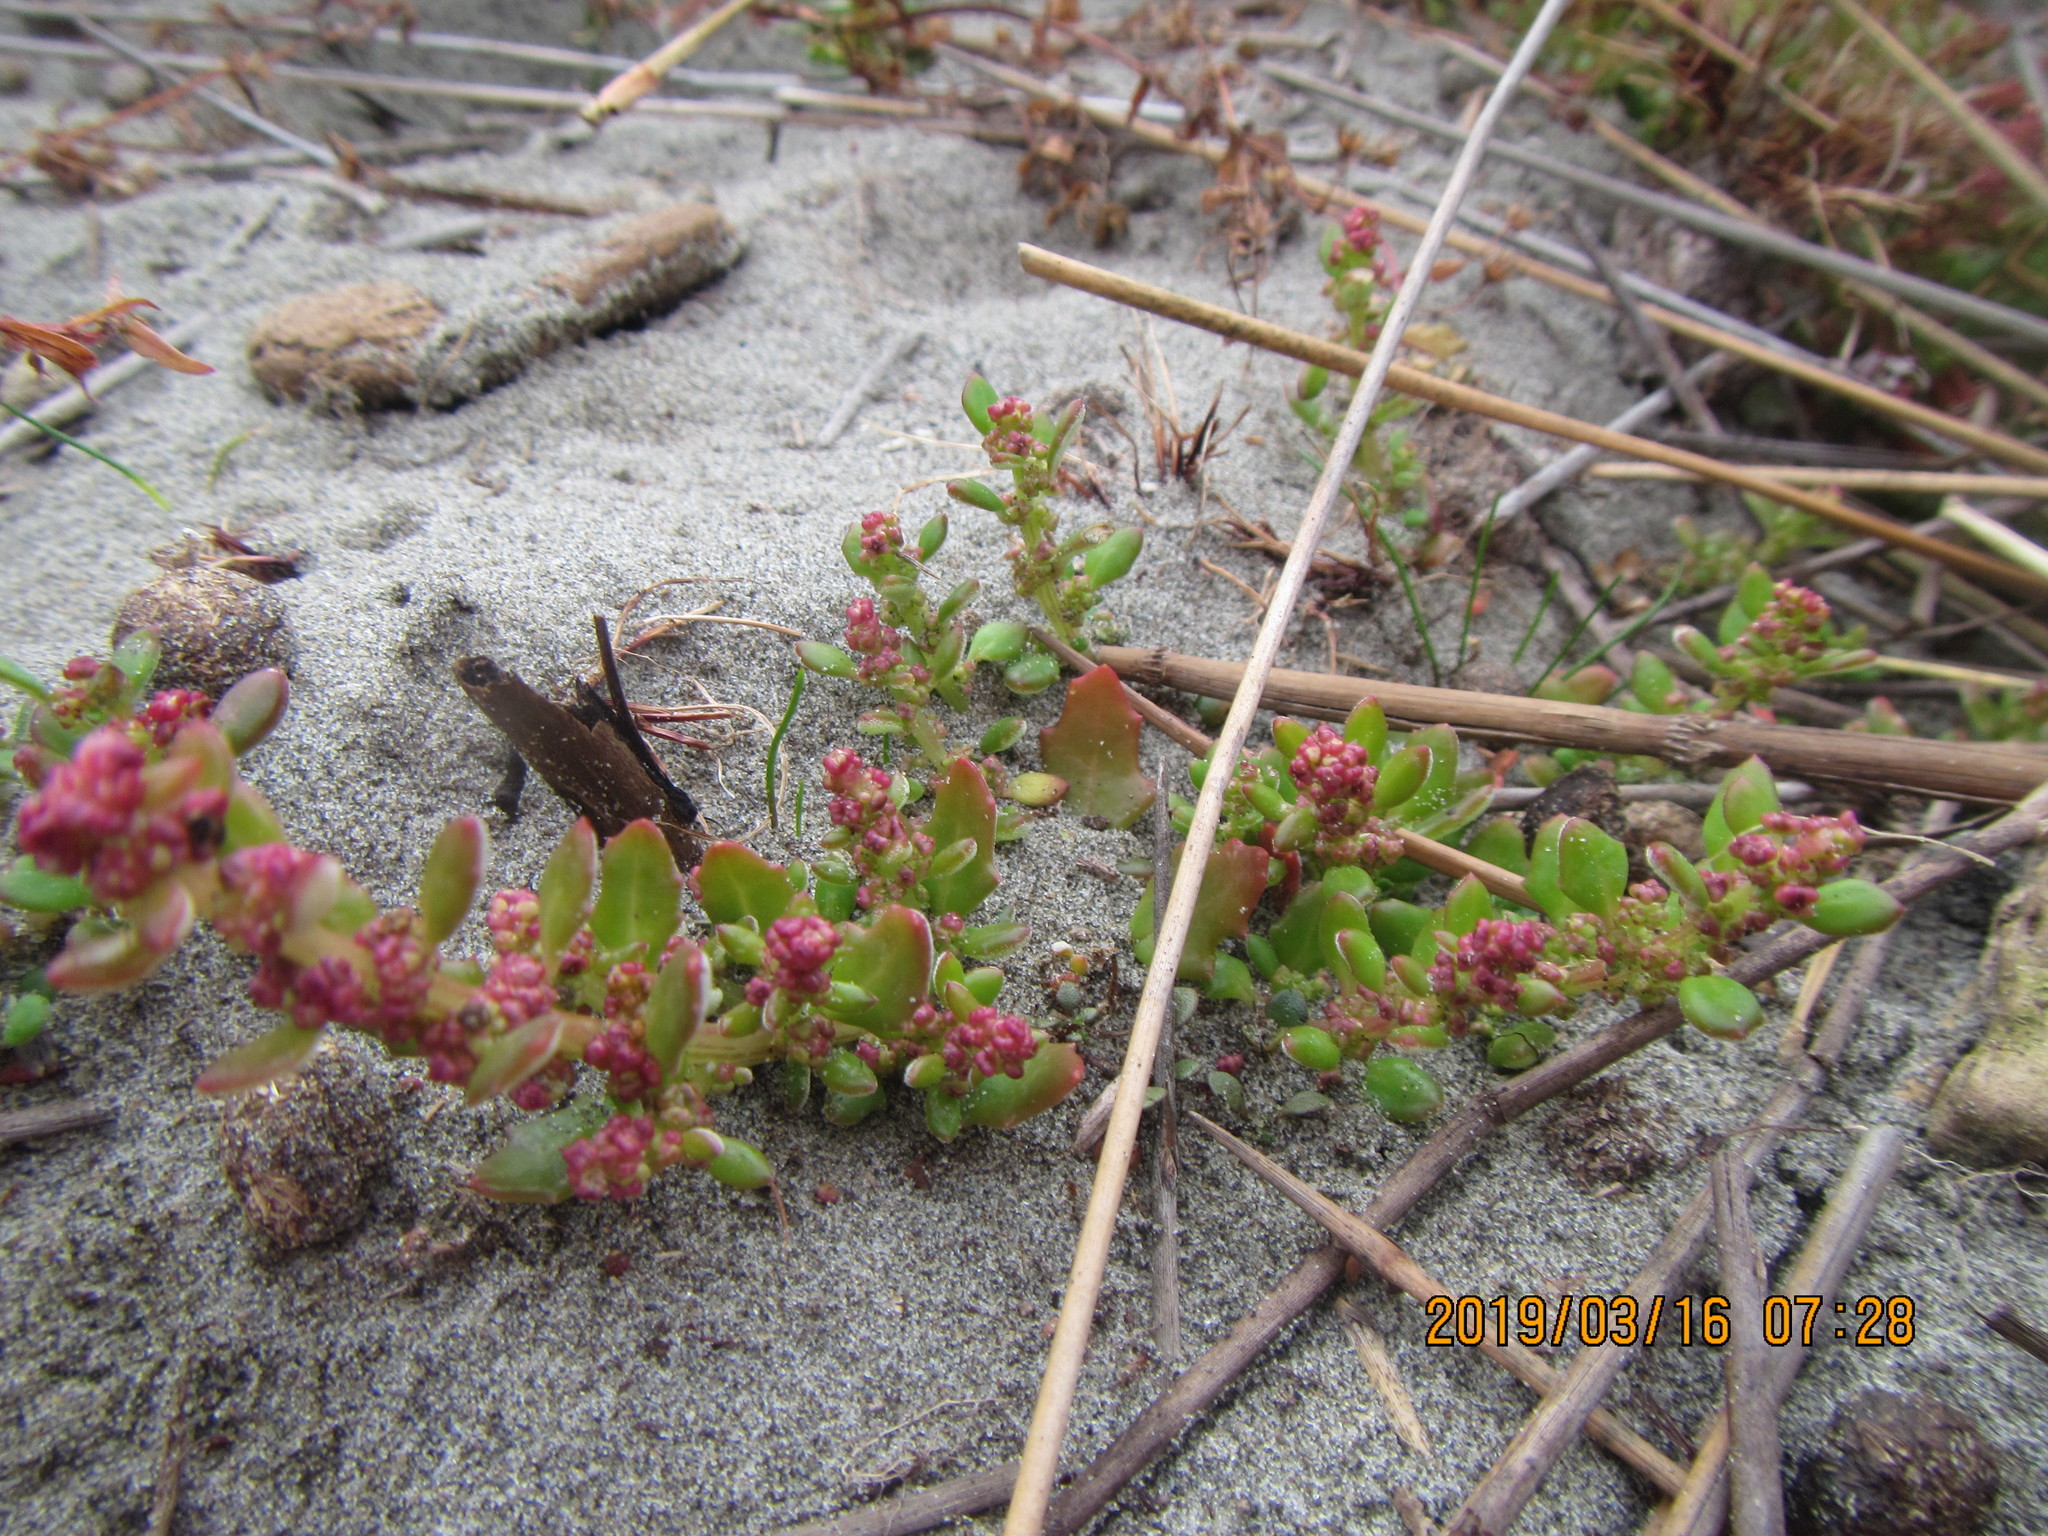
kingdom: Plantae
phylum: Tracheophyta
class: Magnoliopsida
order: Caryophyllales
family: Amaranthaceae
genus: Oxybasis
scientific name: Oxybasis ambigua
